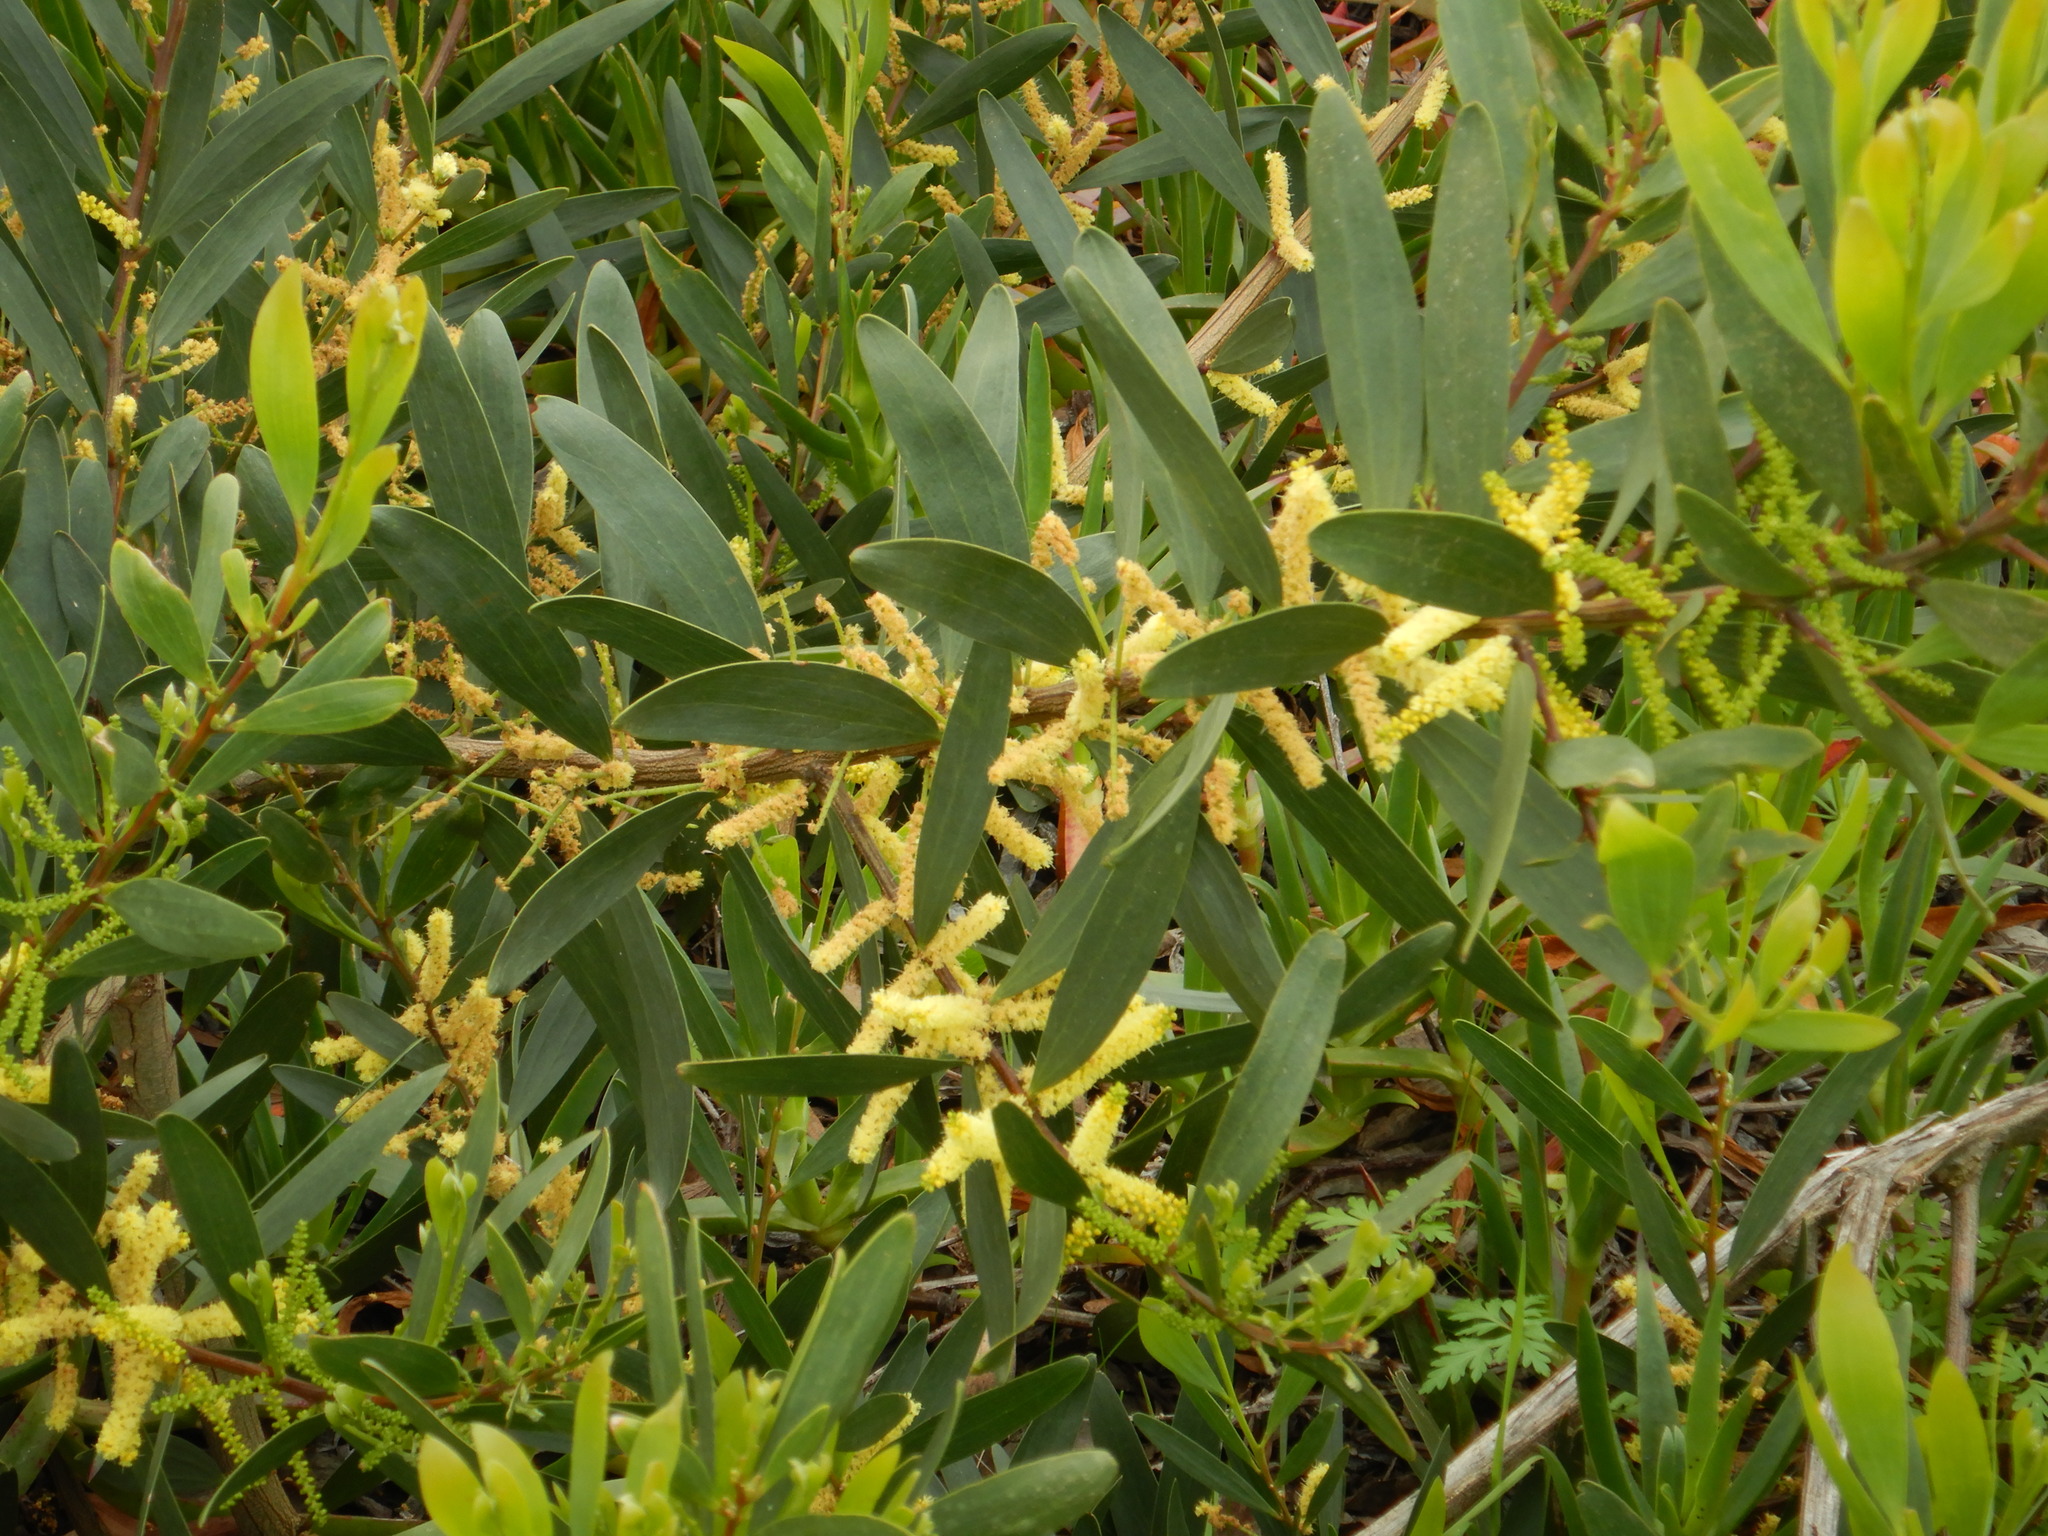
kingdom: Plantae
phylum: Tracheophyta
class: Magnoliopsida
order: Fabales
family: Fabaceae
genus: Acacia
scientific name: Acacia longifolia
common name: Sydney golden wattle
